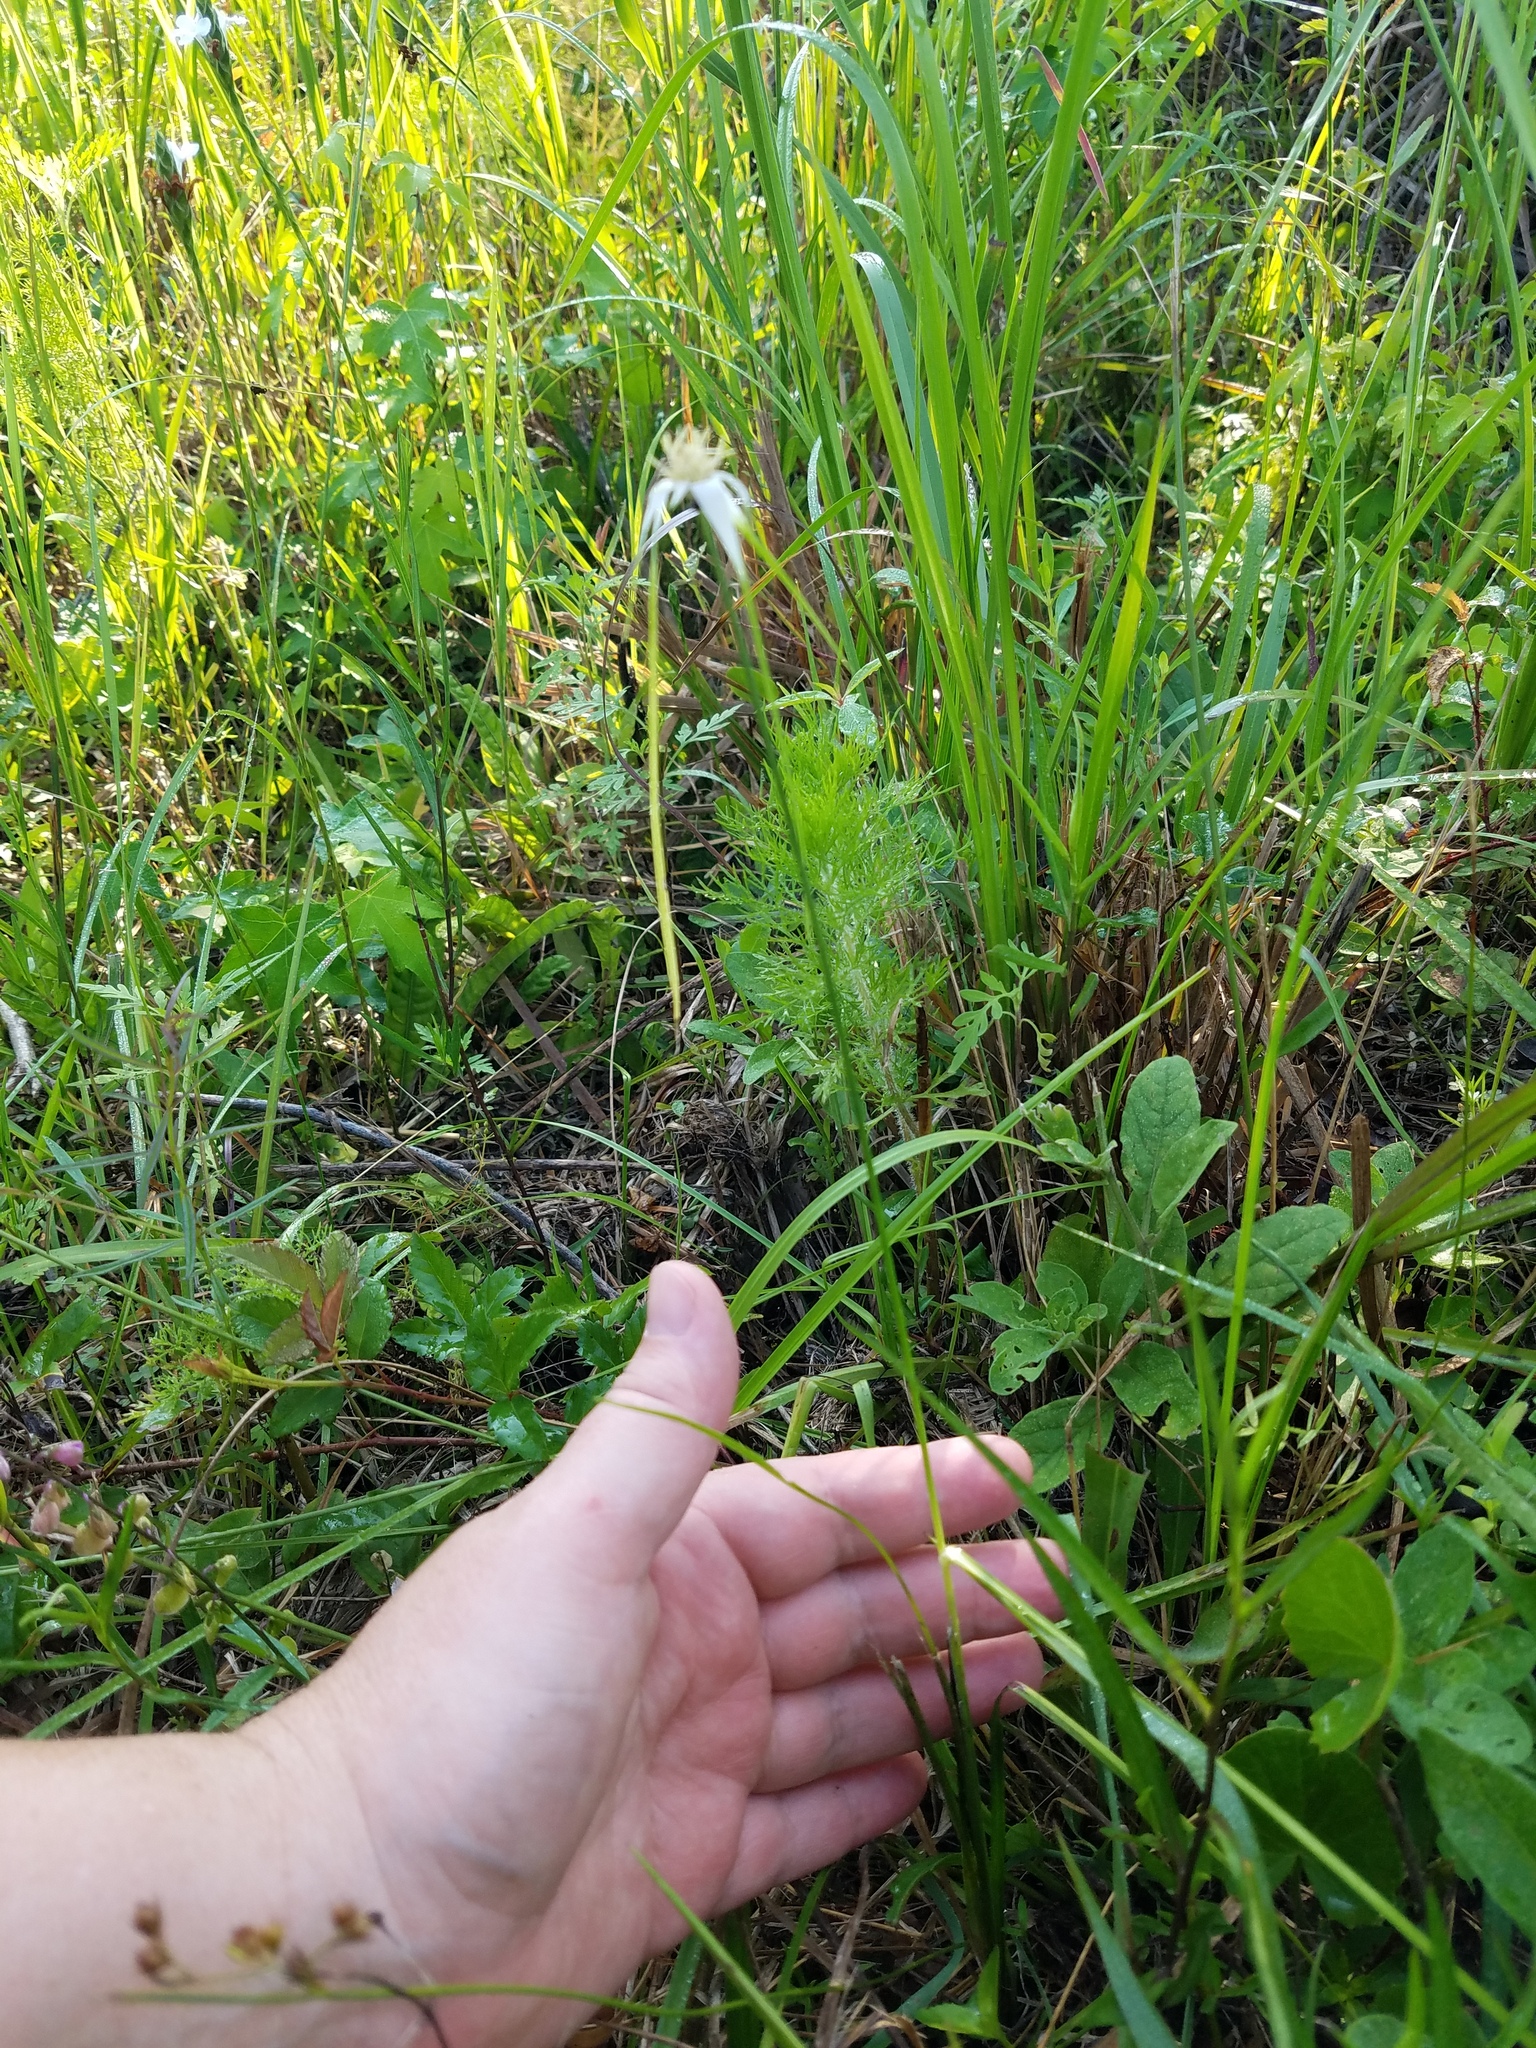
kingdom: Plantae
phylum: Tracheophyta
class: Liliopsida
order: Poales
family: Cyperaceae
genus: Rhynchospora
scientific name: Rhynchospora colorata
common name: Star sedge
